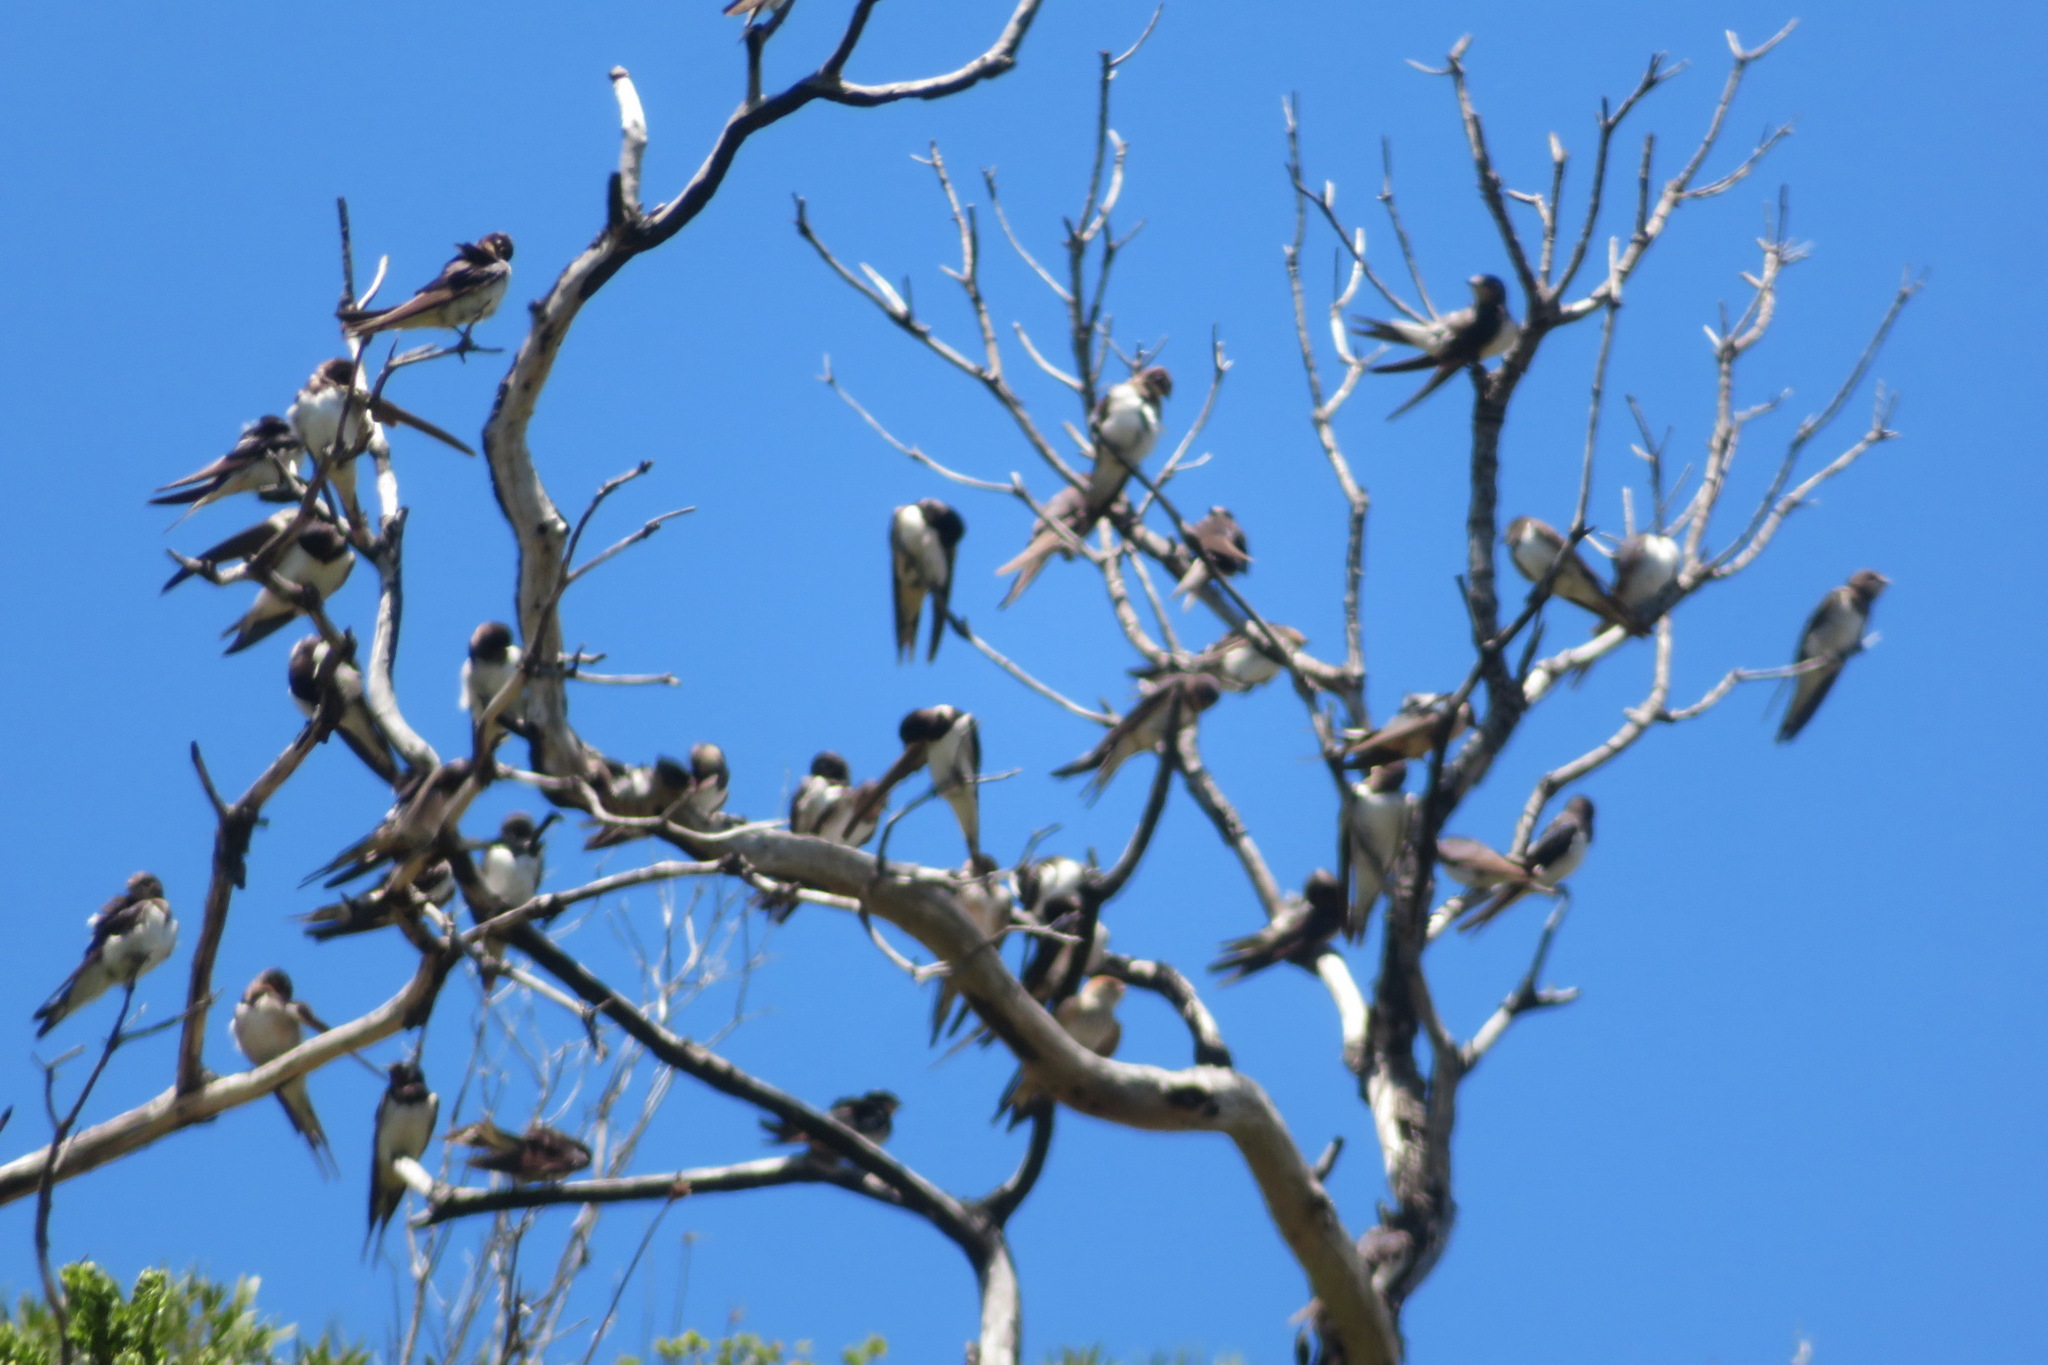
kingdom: Animalia
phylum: Chordata
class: Aves
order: Passeriformes
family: Hirundinidae
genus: Hirundo
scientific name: Hirundo rustica
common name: Barn swallow
